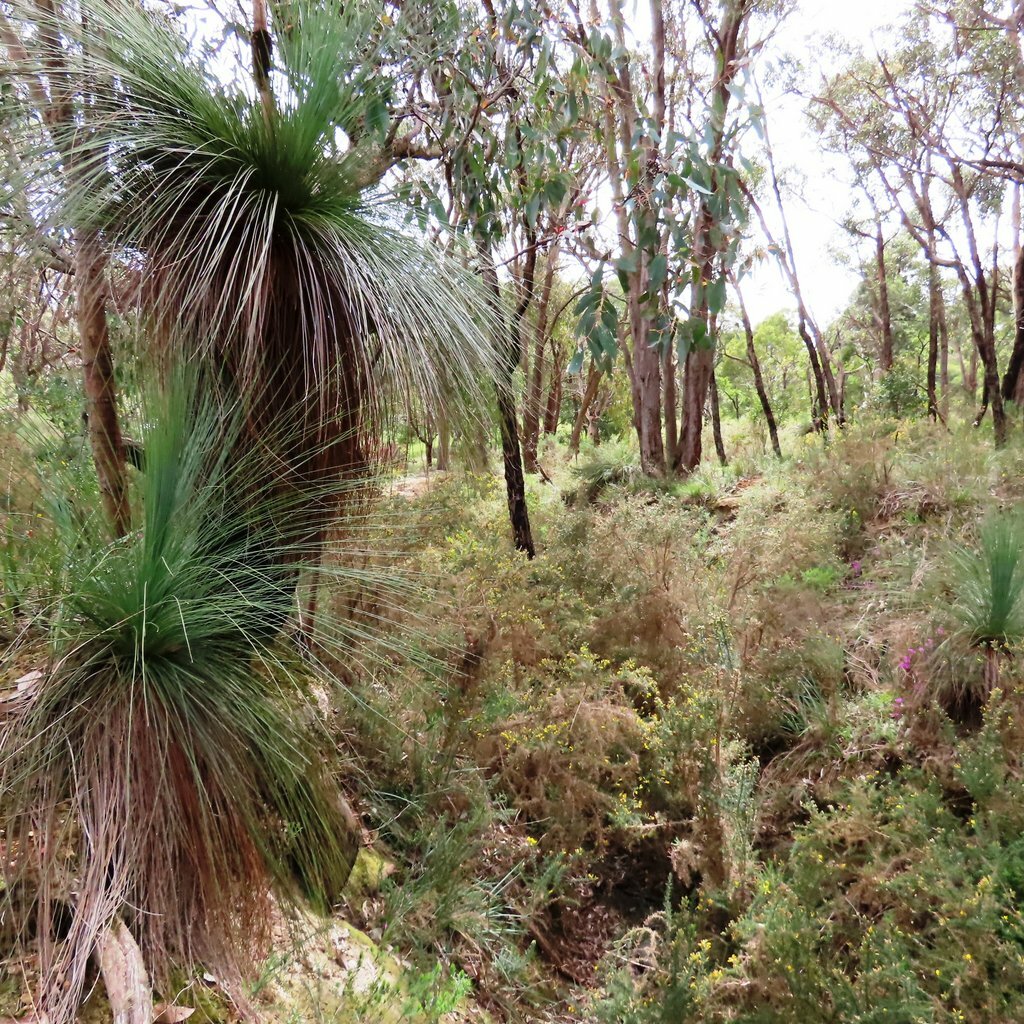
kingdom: Plantae
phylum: Tracheophyta
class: Liliopsida
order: Asparagales
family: Asphodelaceae
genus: Xanthorrhoea
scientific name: Xanthorrhoea australis
